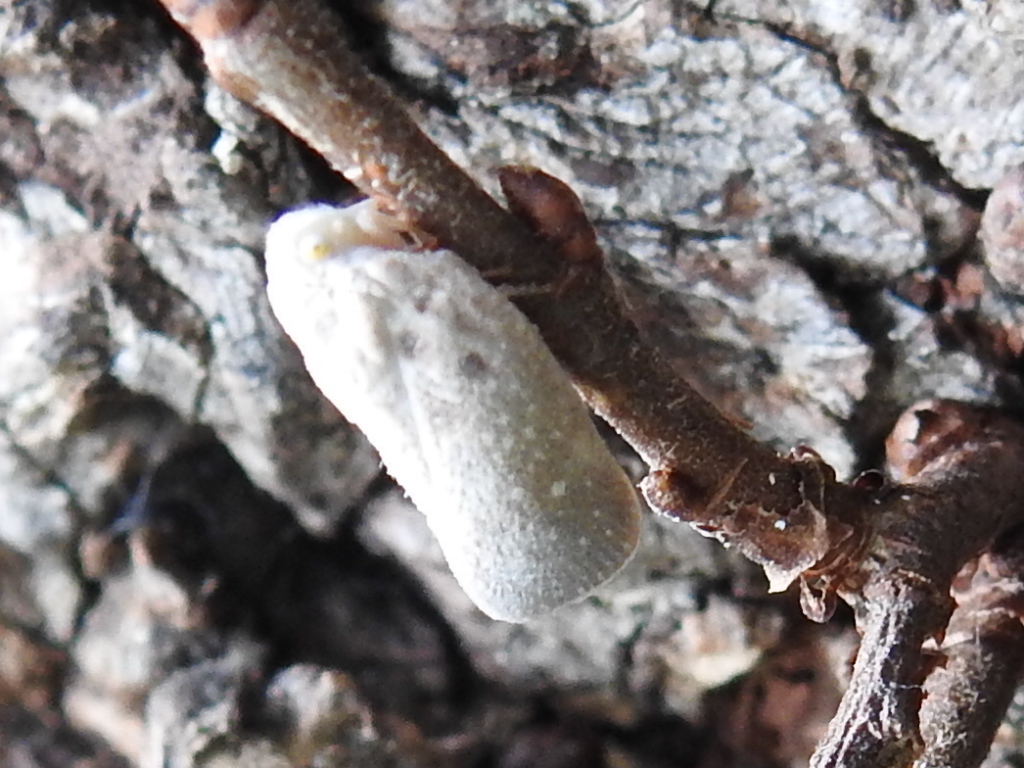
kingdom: Animalia
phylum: Arthropoda
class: Insecta
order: Hemiptera
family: Flatidae
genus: Metcalfa
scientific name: Metcalfa pruinosa
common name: Citrus flatid planthopper
